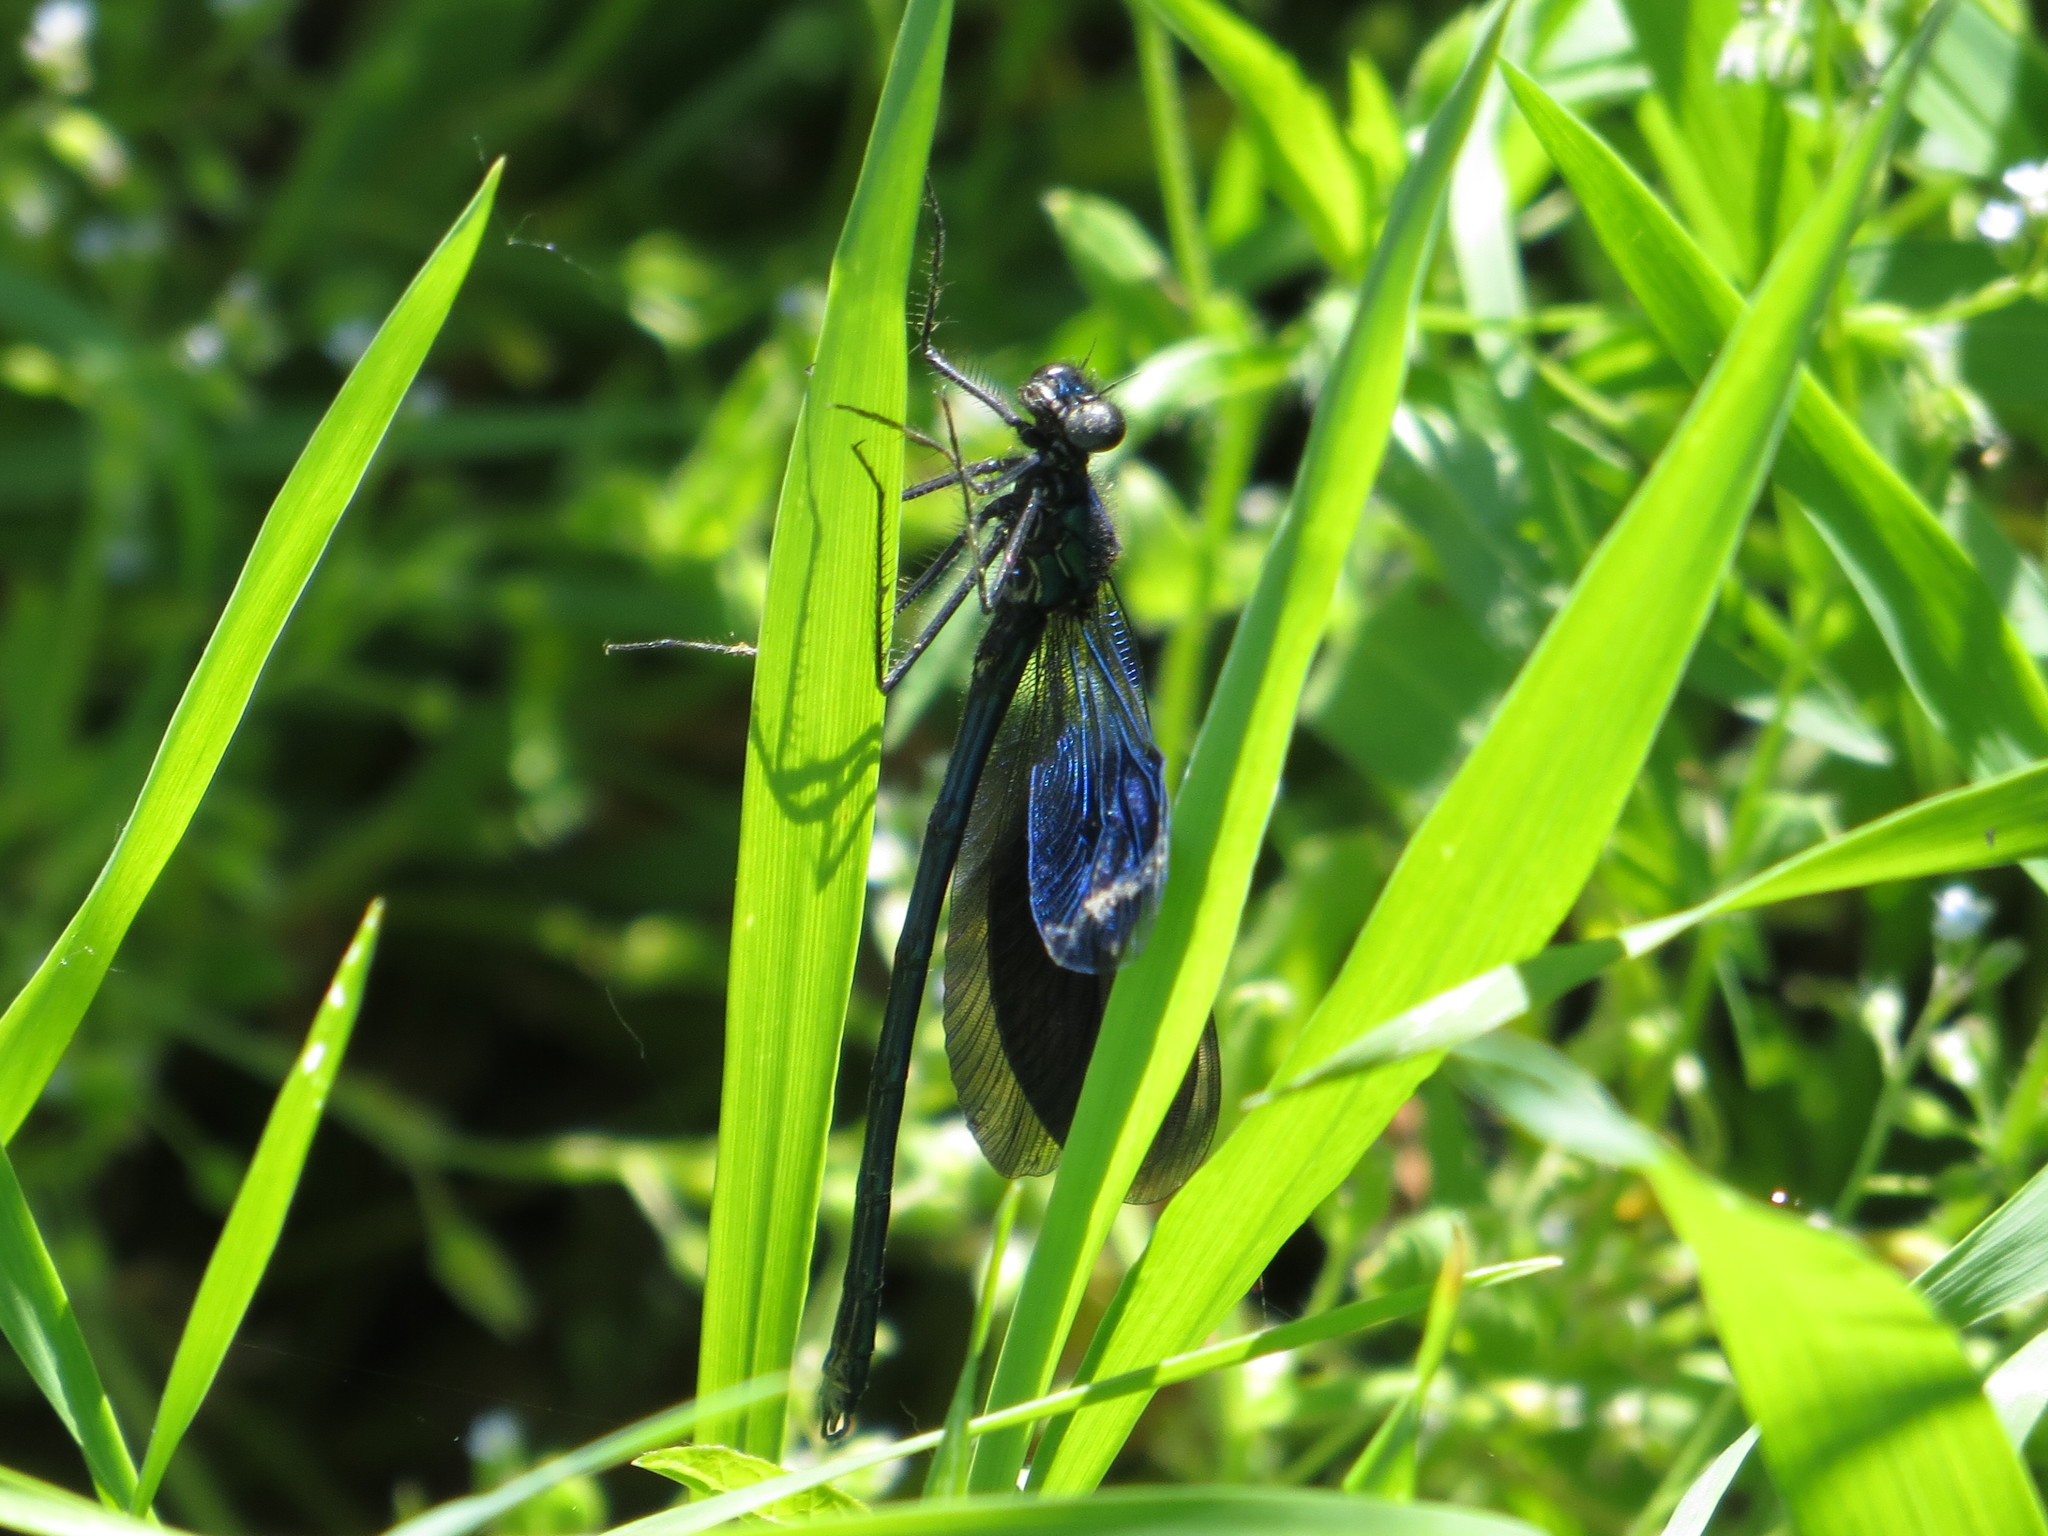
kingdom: Animalia
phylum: Arthropoda
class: Insecta
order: Odonata
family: Calopterygidae
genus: Calopteryx
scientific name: Calopteryx splendens
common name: Banded demoiselle
